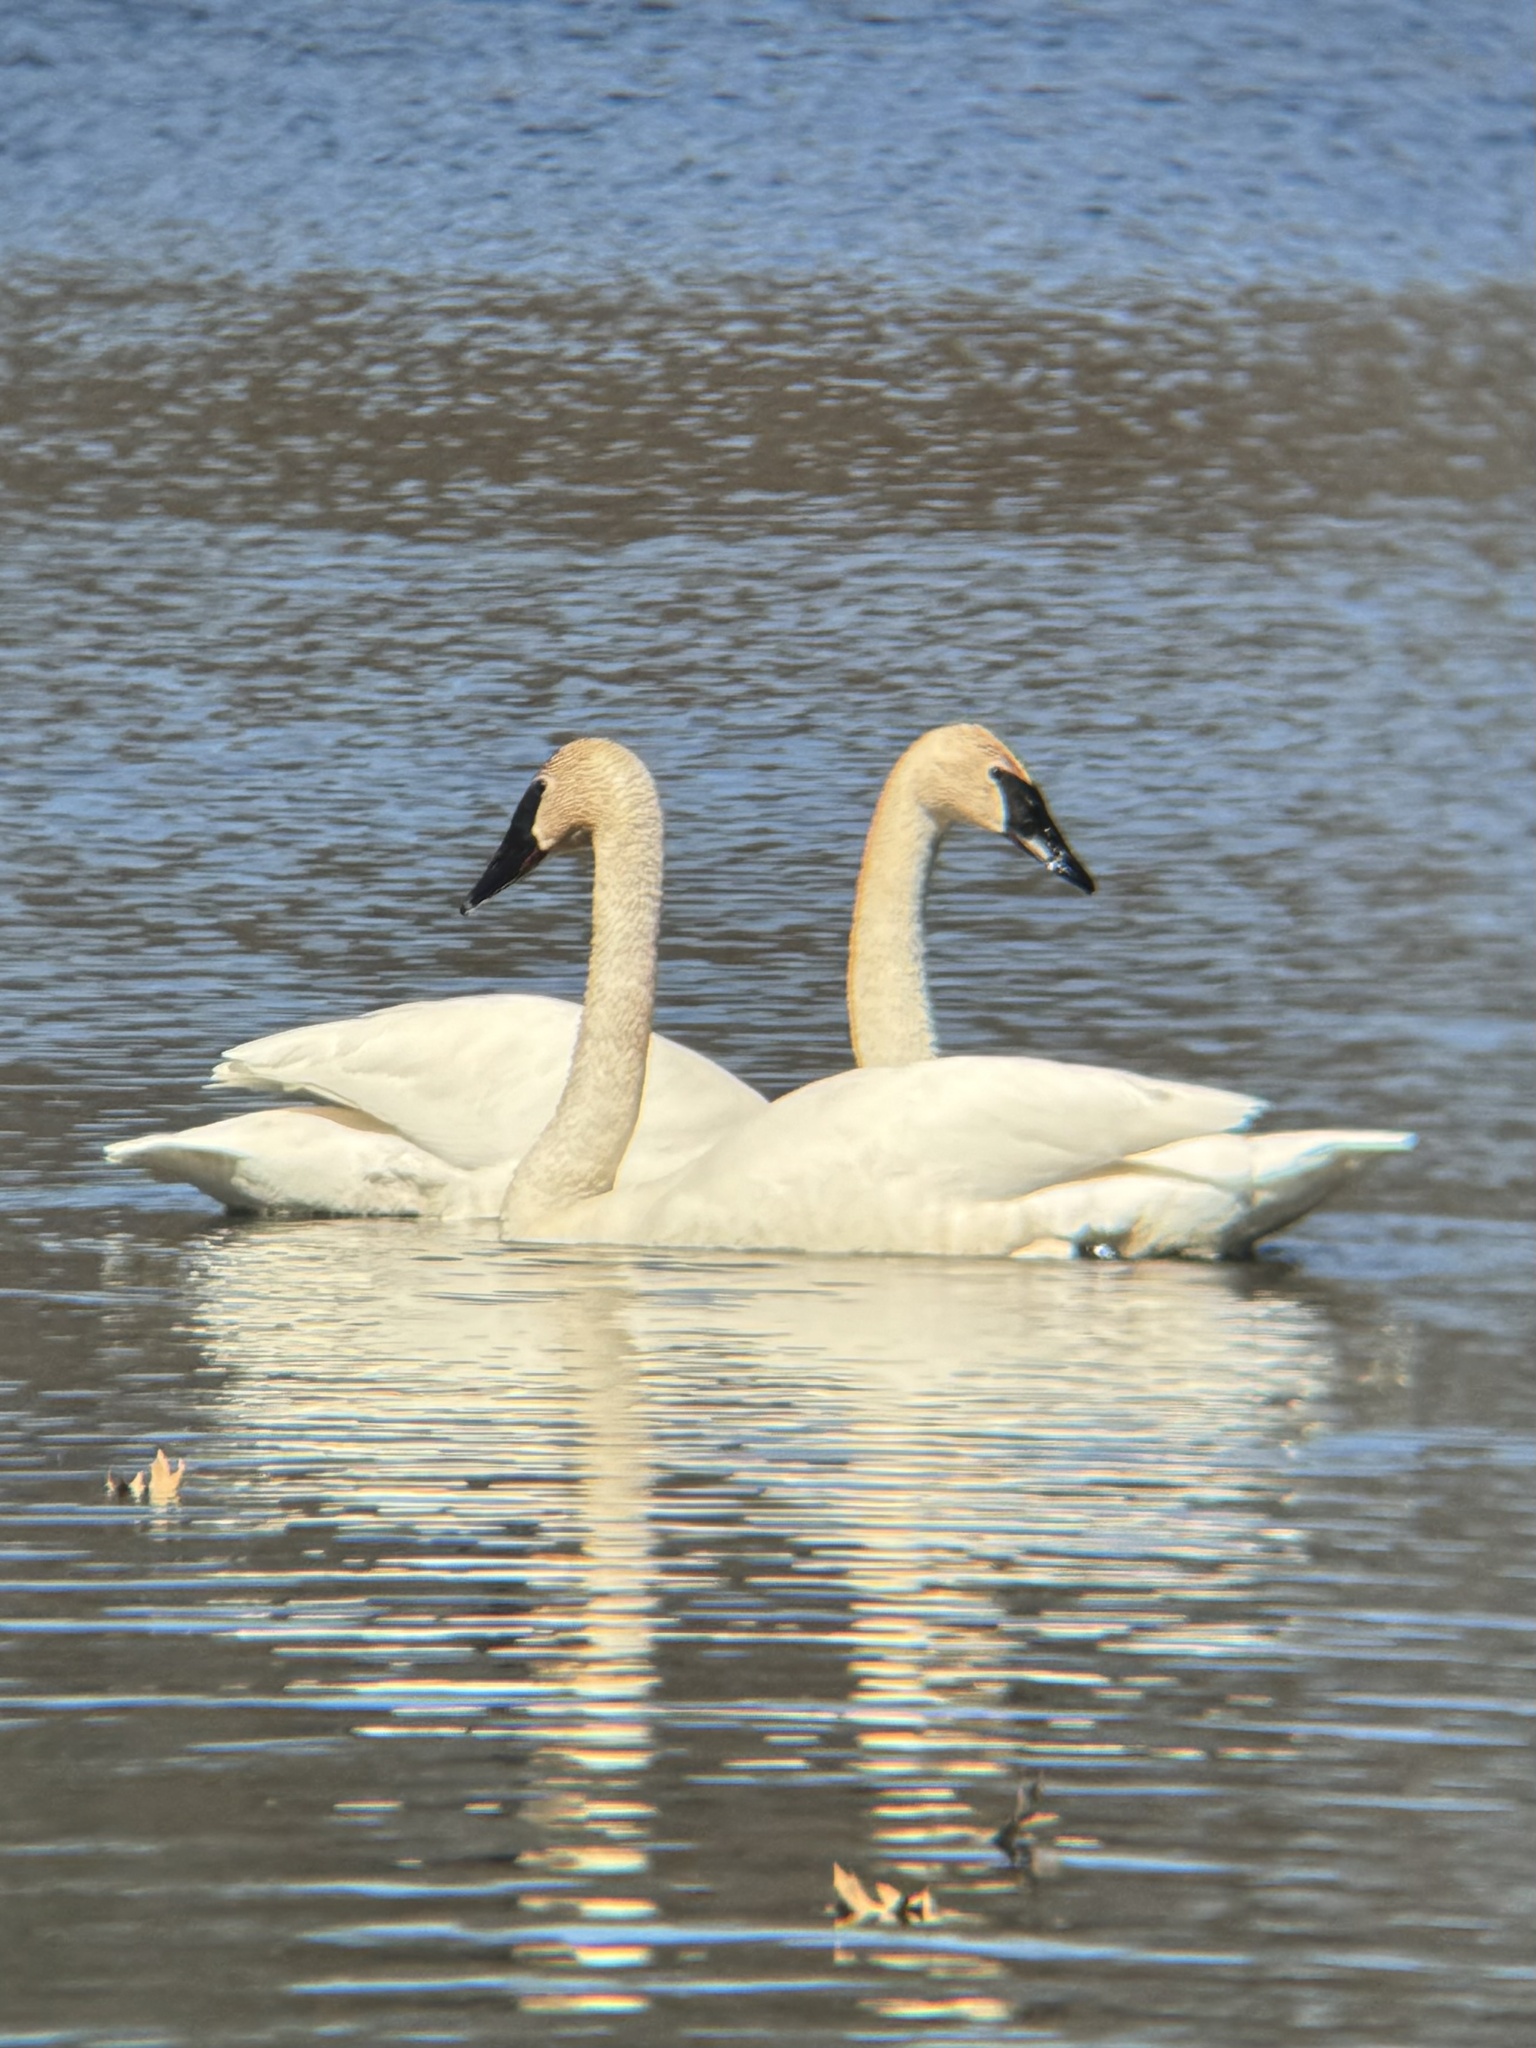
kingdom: Animalia
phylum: Chordata
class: Aves
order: Anseriformes
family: Anatidae
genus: Cygnus
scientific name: Cygnus buccinator
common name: Trumpeter swan
